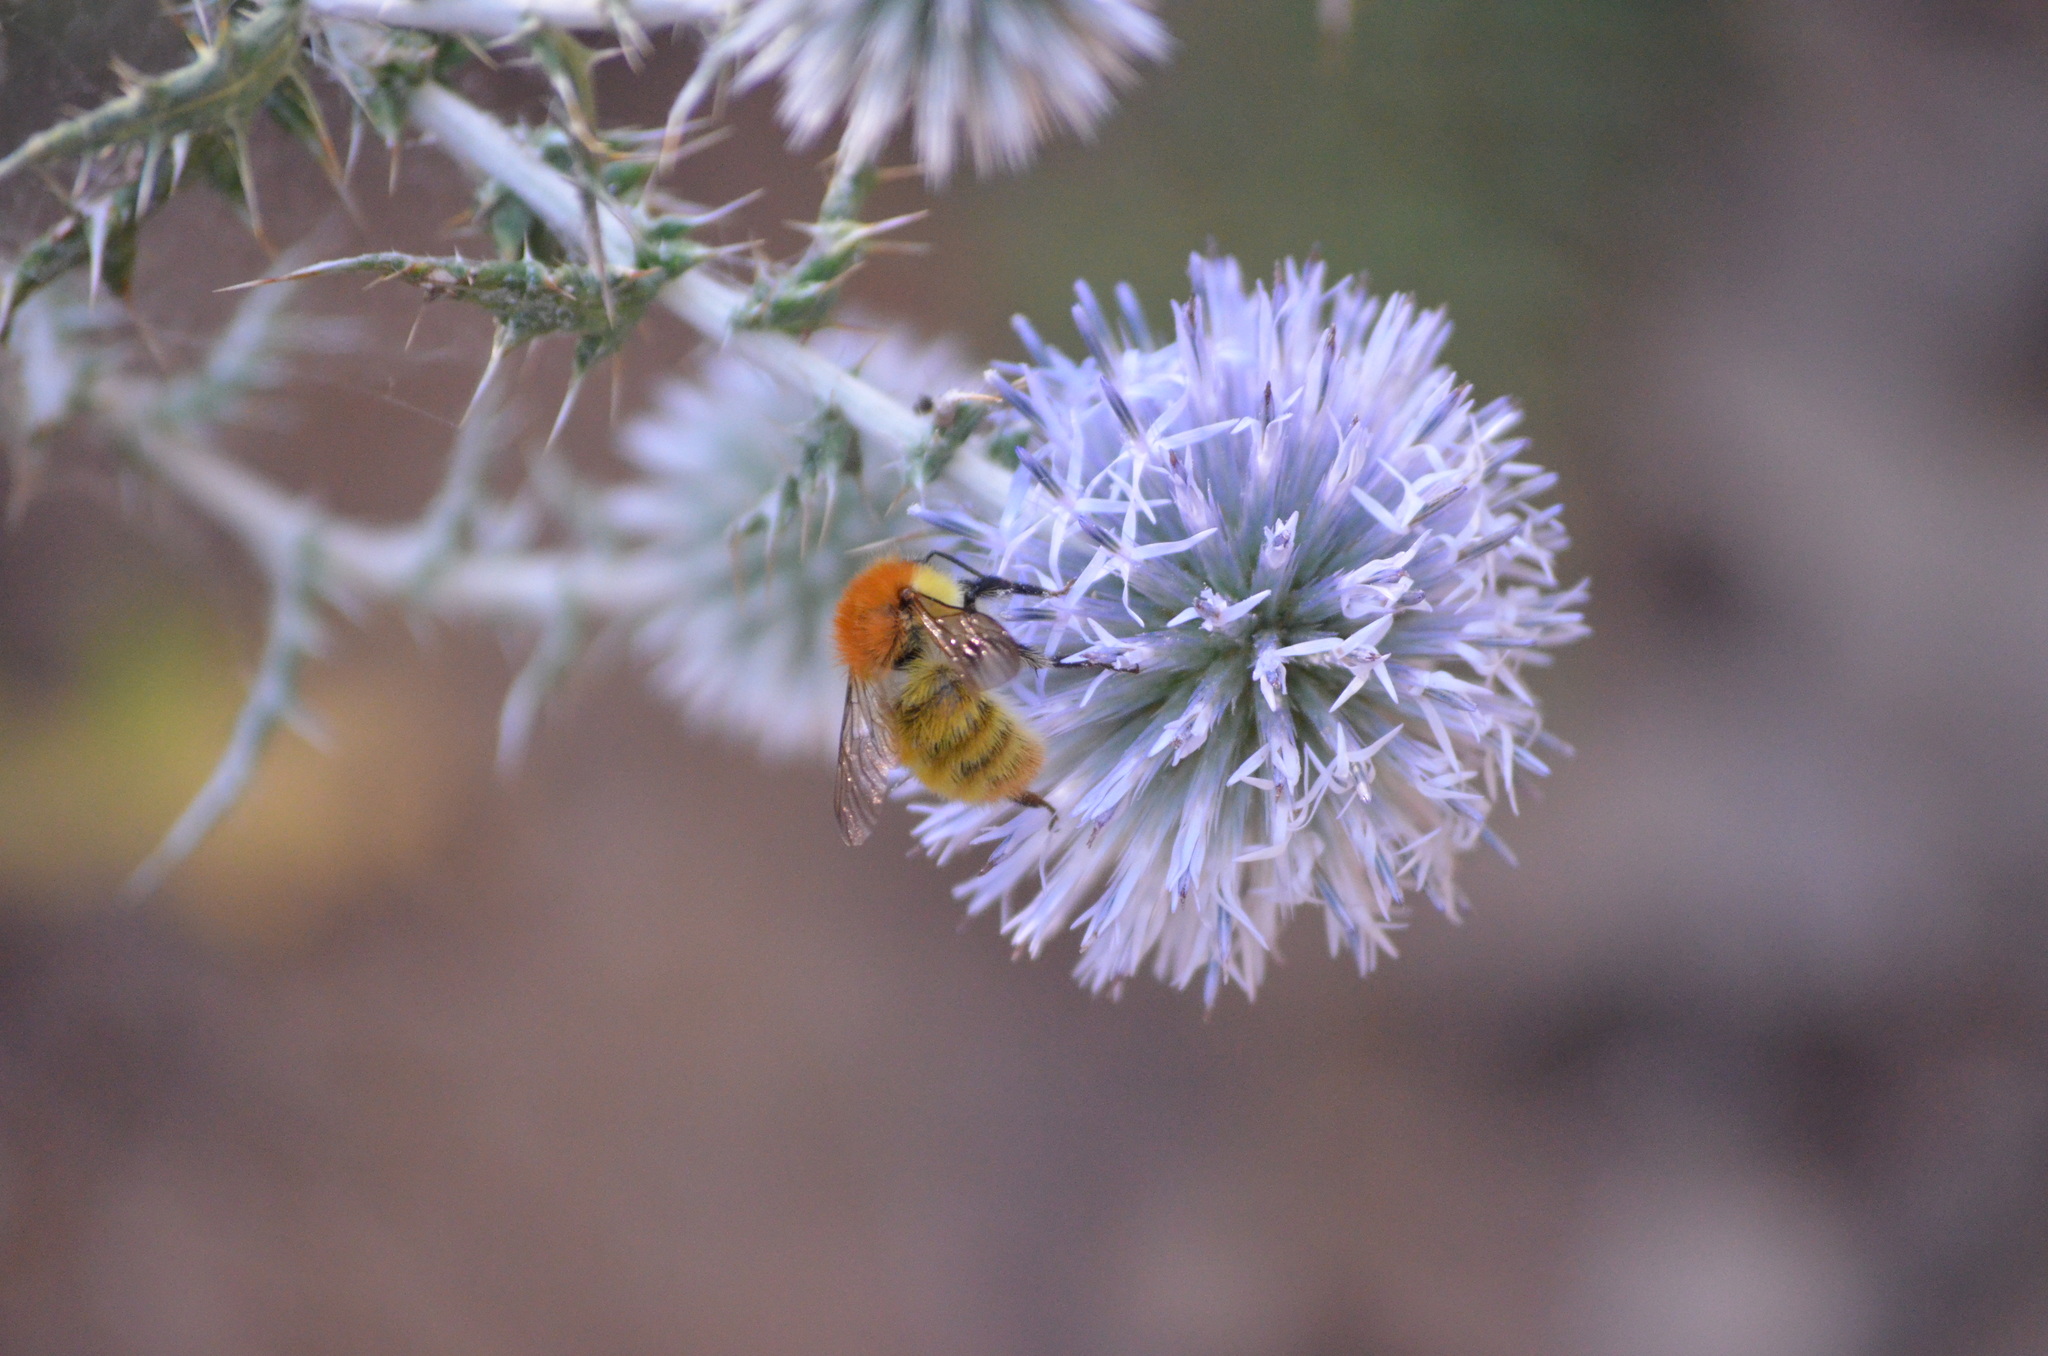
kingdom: Animalia
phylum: Arthropoda
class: Insecta
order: Hymenoptera
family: Apidae
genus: Bombus
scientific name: Bombus pascuorum
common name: Common carder bee
